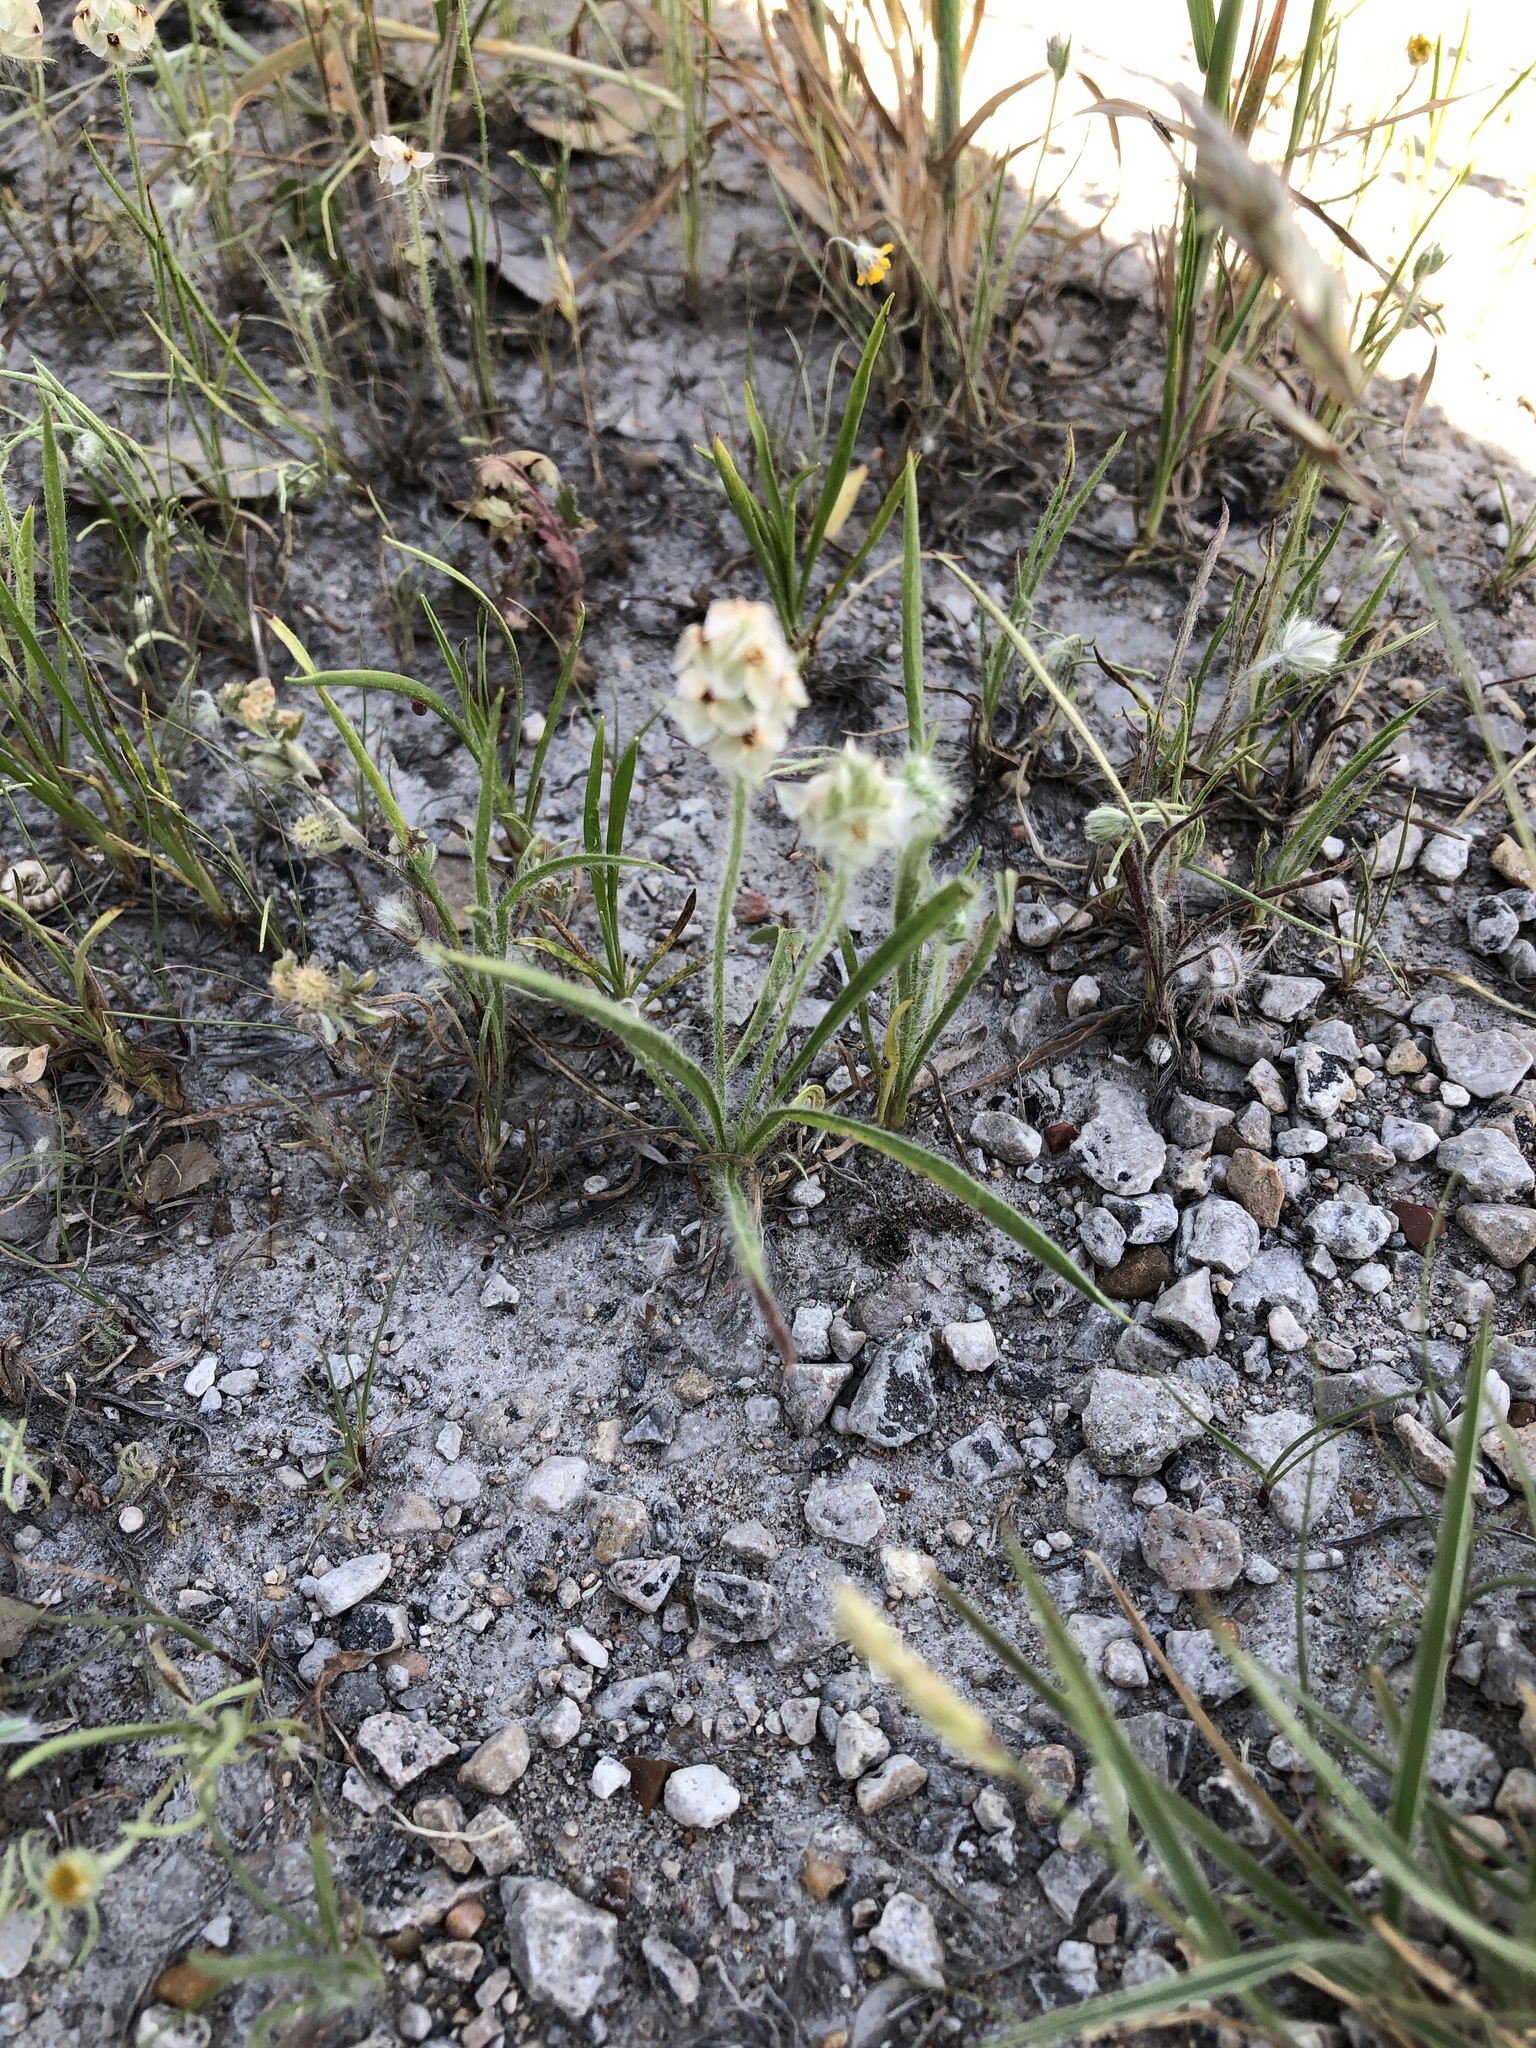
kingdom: Plantae
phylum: Tracheophyta
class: Magnoliopsida
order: Lamiales
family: Plantaginaceae
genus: Plantago
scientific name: Plantago helleri
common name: Heller's plantain
